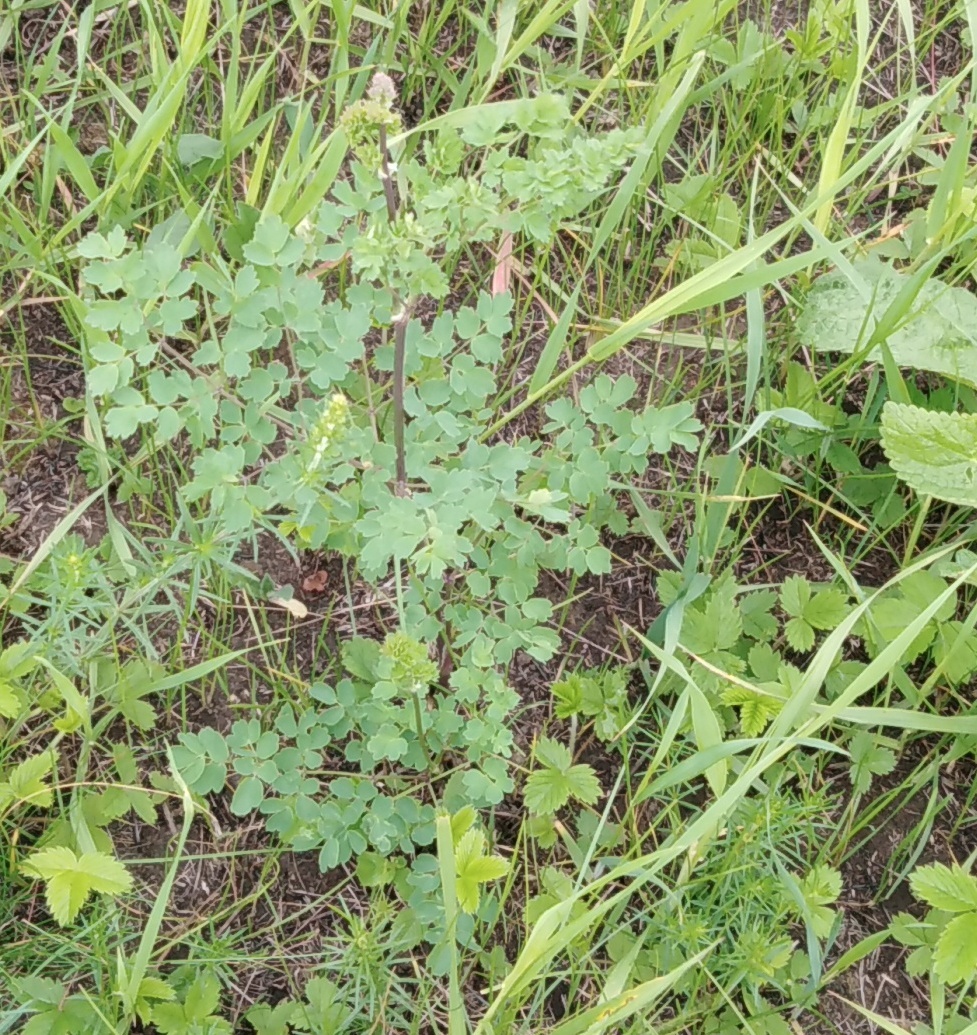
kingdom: Plantae
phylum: Tracheophyta
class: Magnoliopsida
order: Ranunculales
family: Ranunculaceae
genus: Thalictrum
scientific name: Thalictrum minus
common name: Lesser meadow-rue
